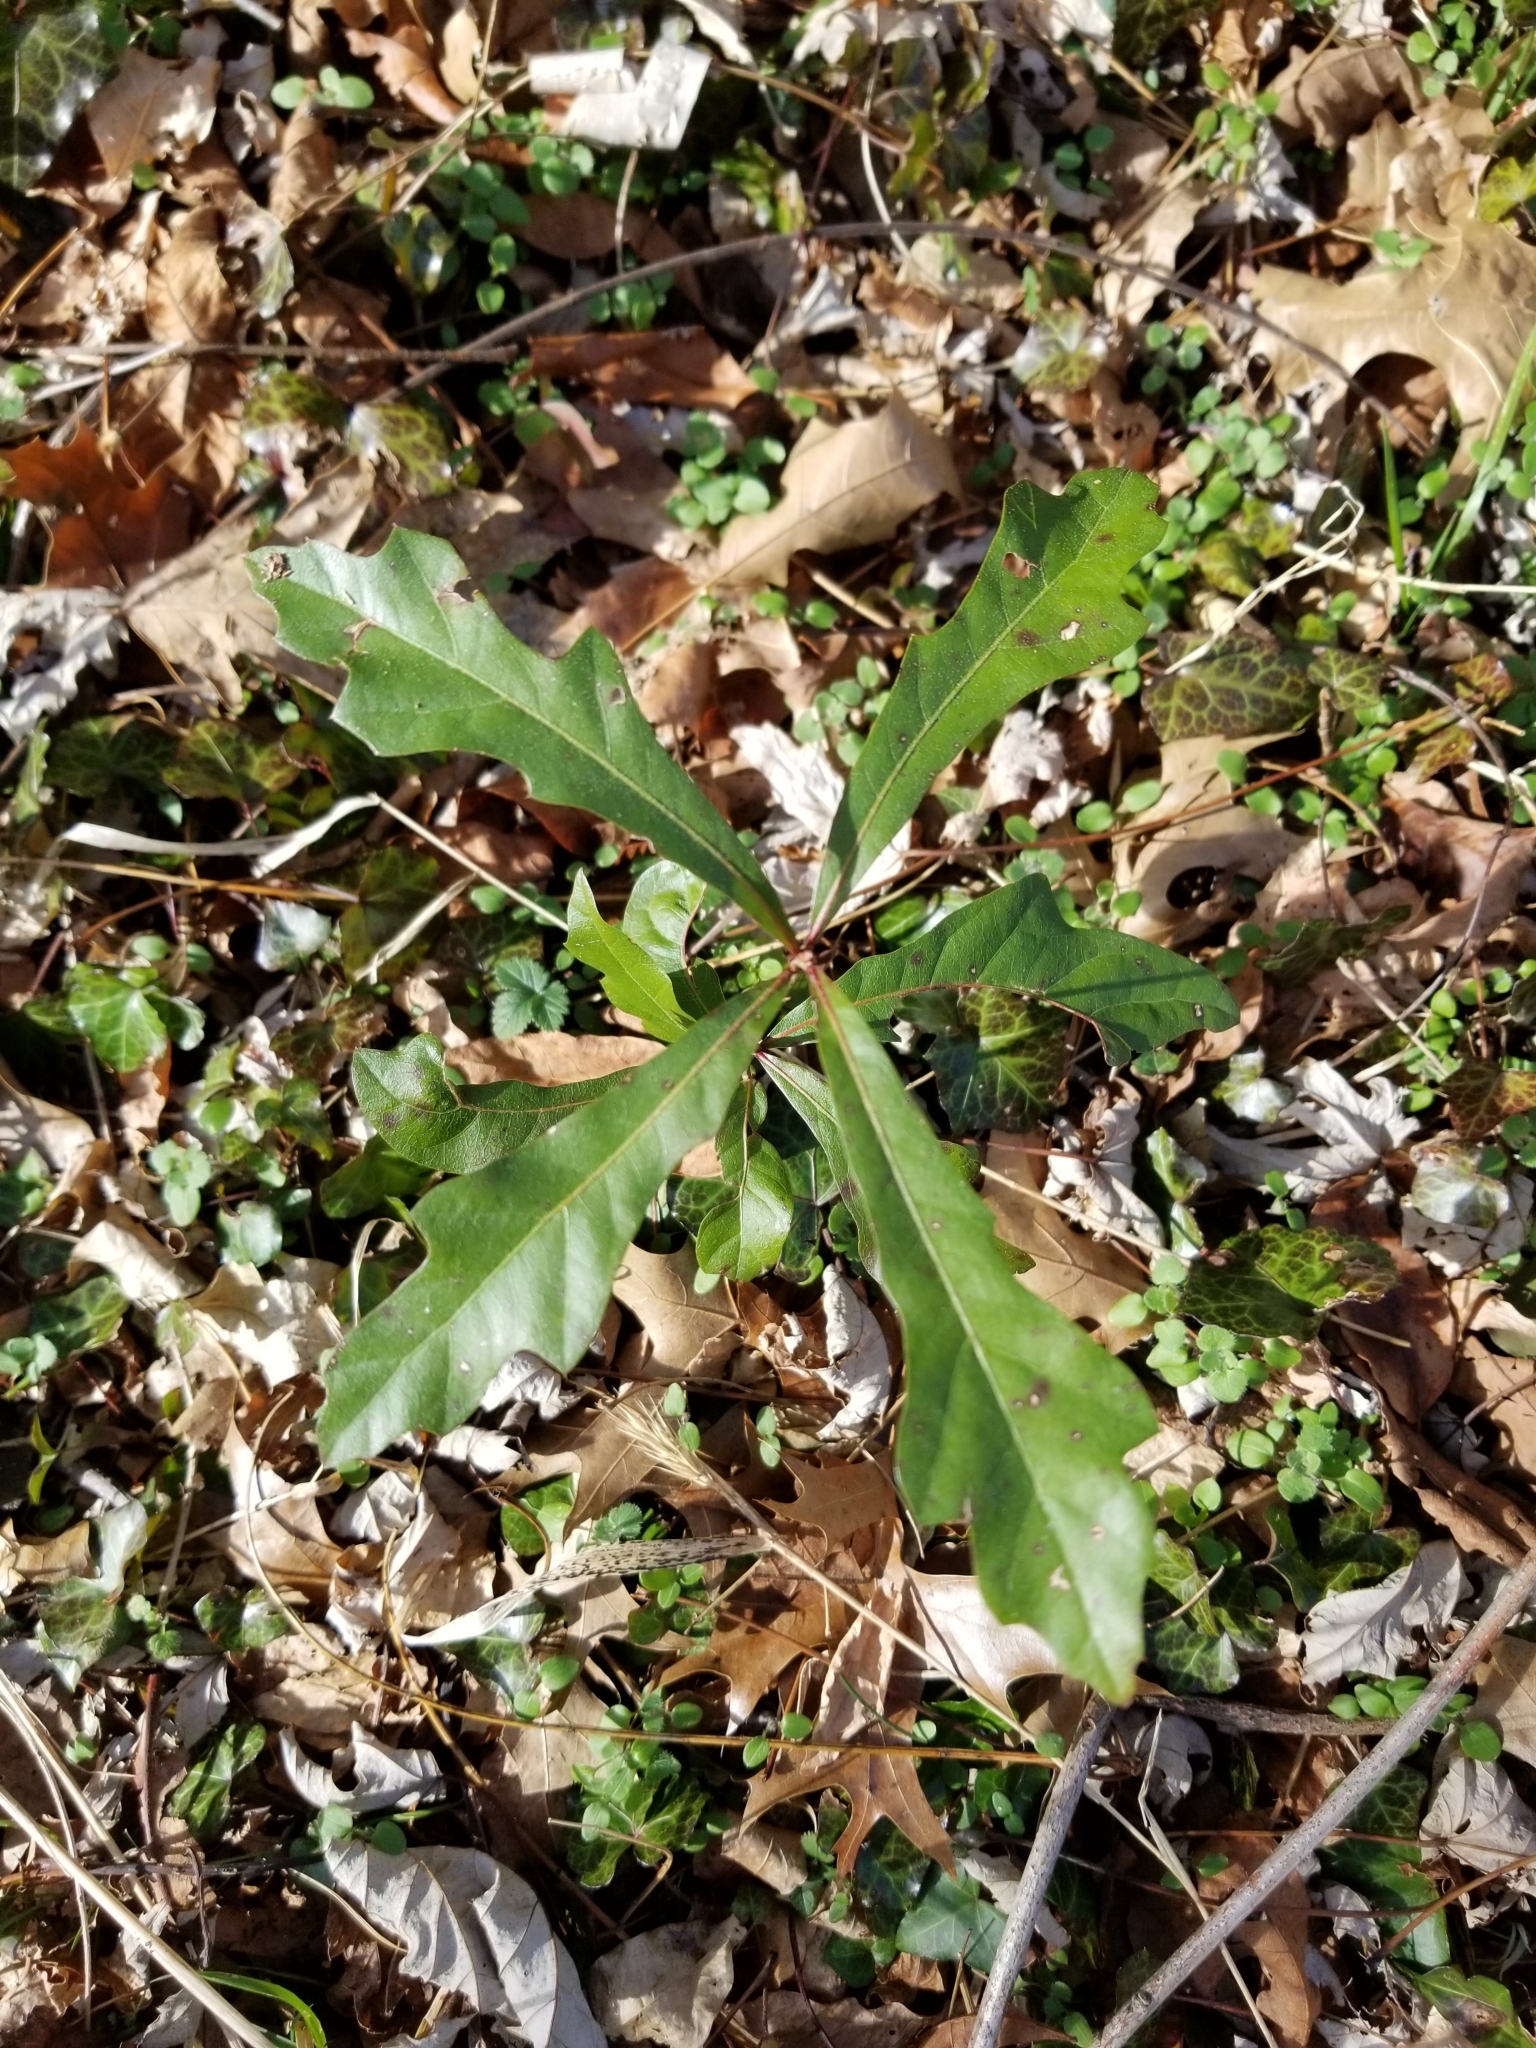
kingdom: Plantae
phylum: Tracheophyta
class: Magnoliopsida
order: Fagales
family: Fagaceae
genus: Quercus
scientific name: Quercus nigra
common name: Water oak
